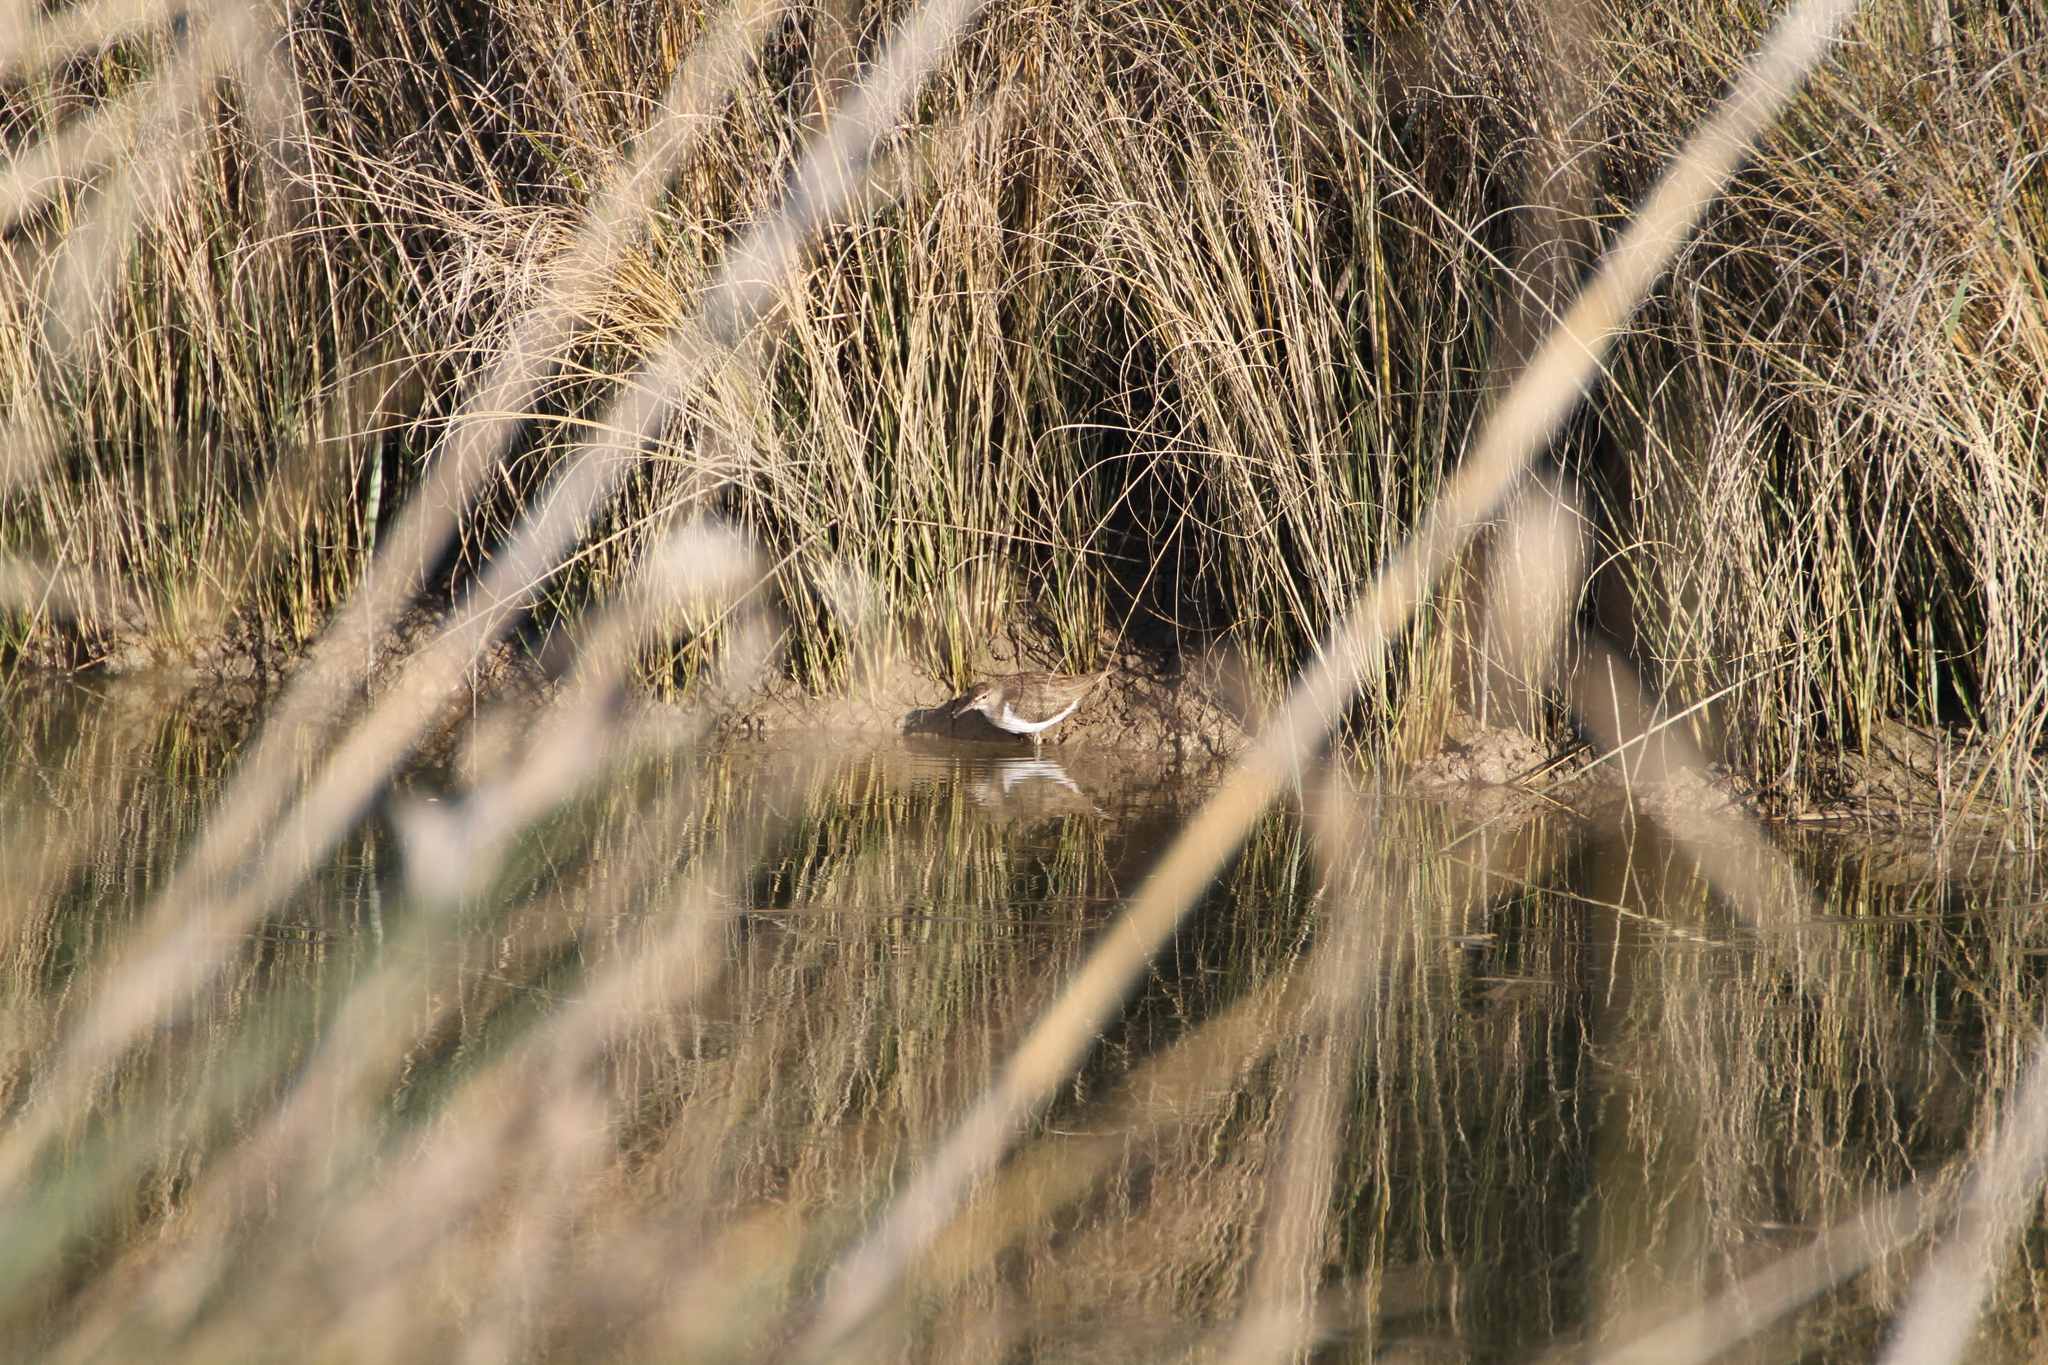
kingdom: Animalia
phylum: Chordata
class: Aves
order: Charadriiformes
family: Scolopacidae
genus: Actitis
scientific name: Actitis hypoleucos
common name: Common sandpiper
